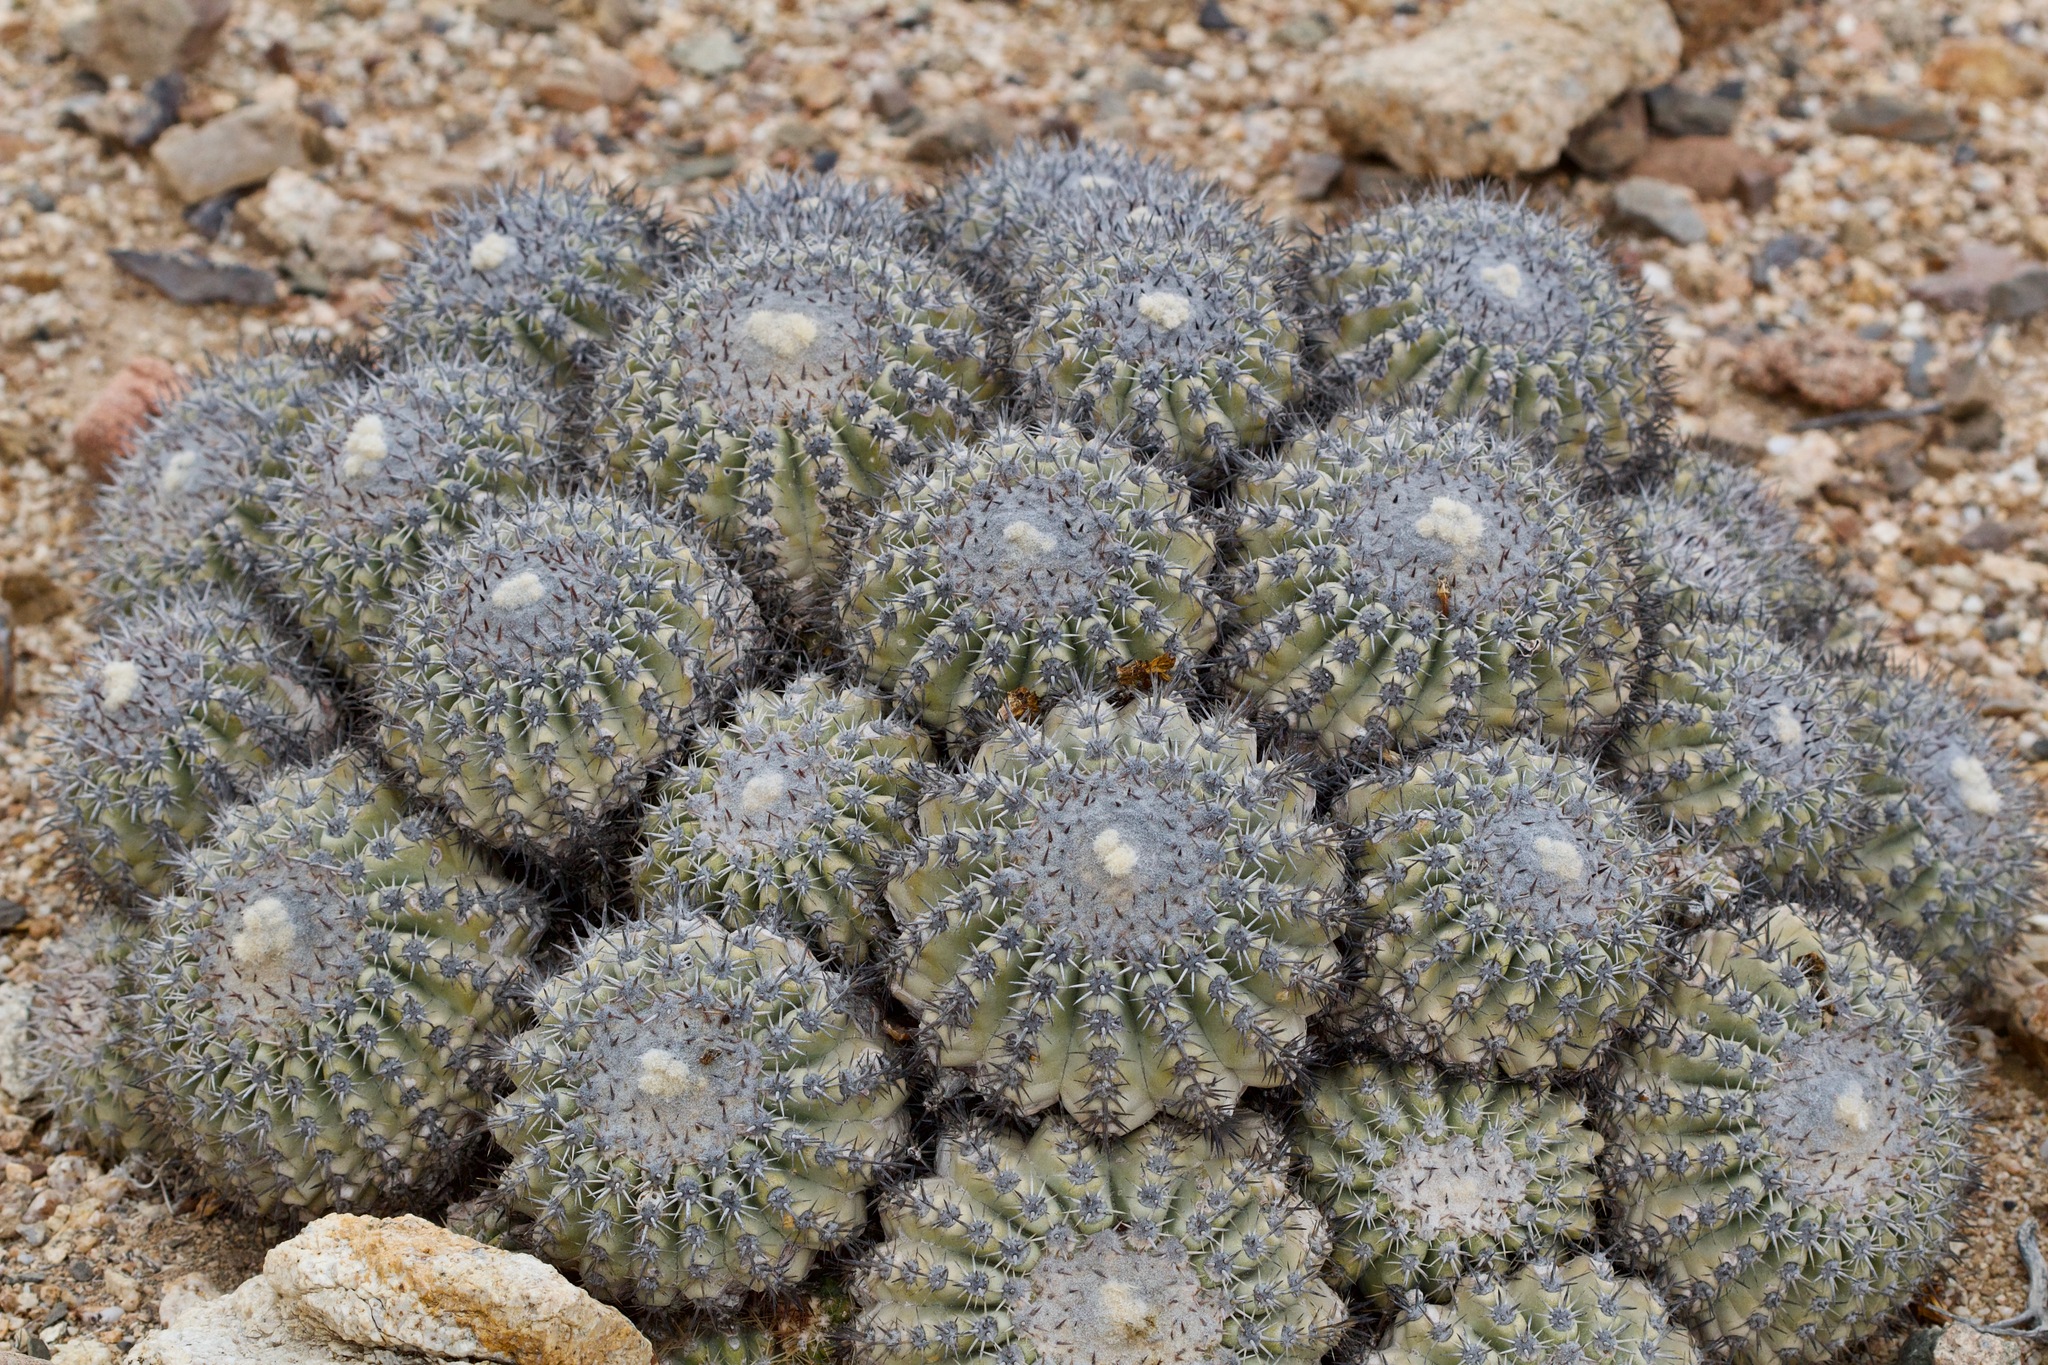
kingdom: Plantae
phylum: Tracheophyta
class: Magnoliopsida
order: Caryophyllales
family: Cactaceae
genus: Copiapoa
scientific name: Copiapoa cinerascens
